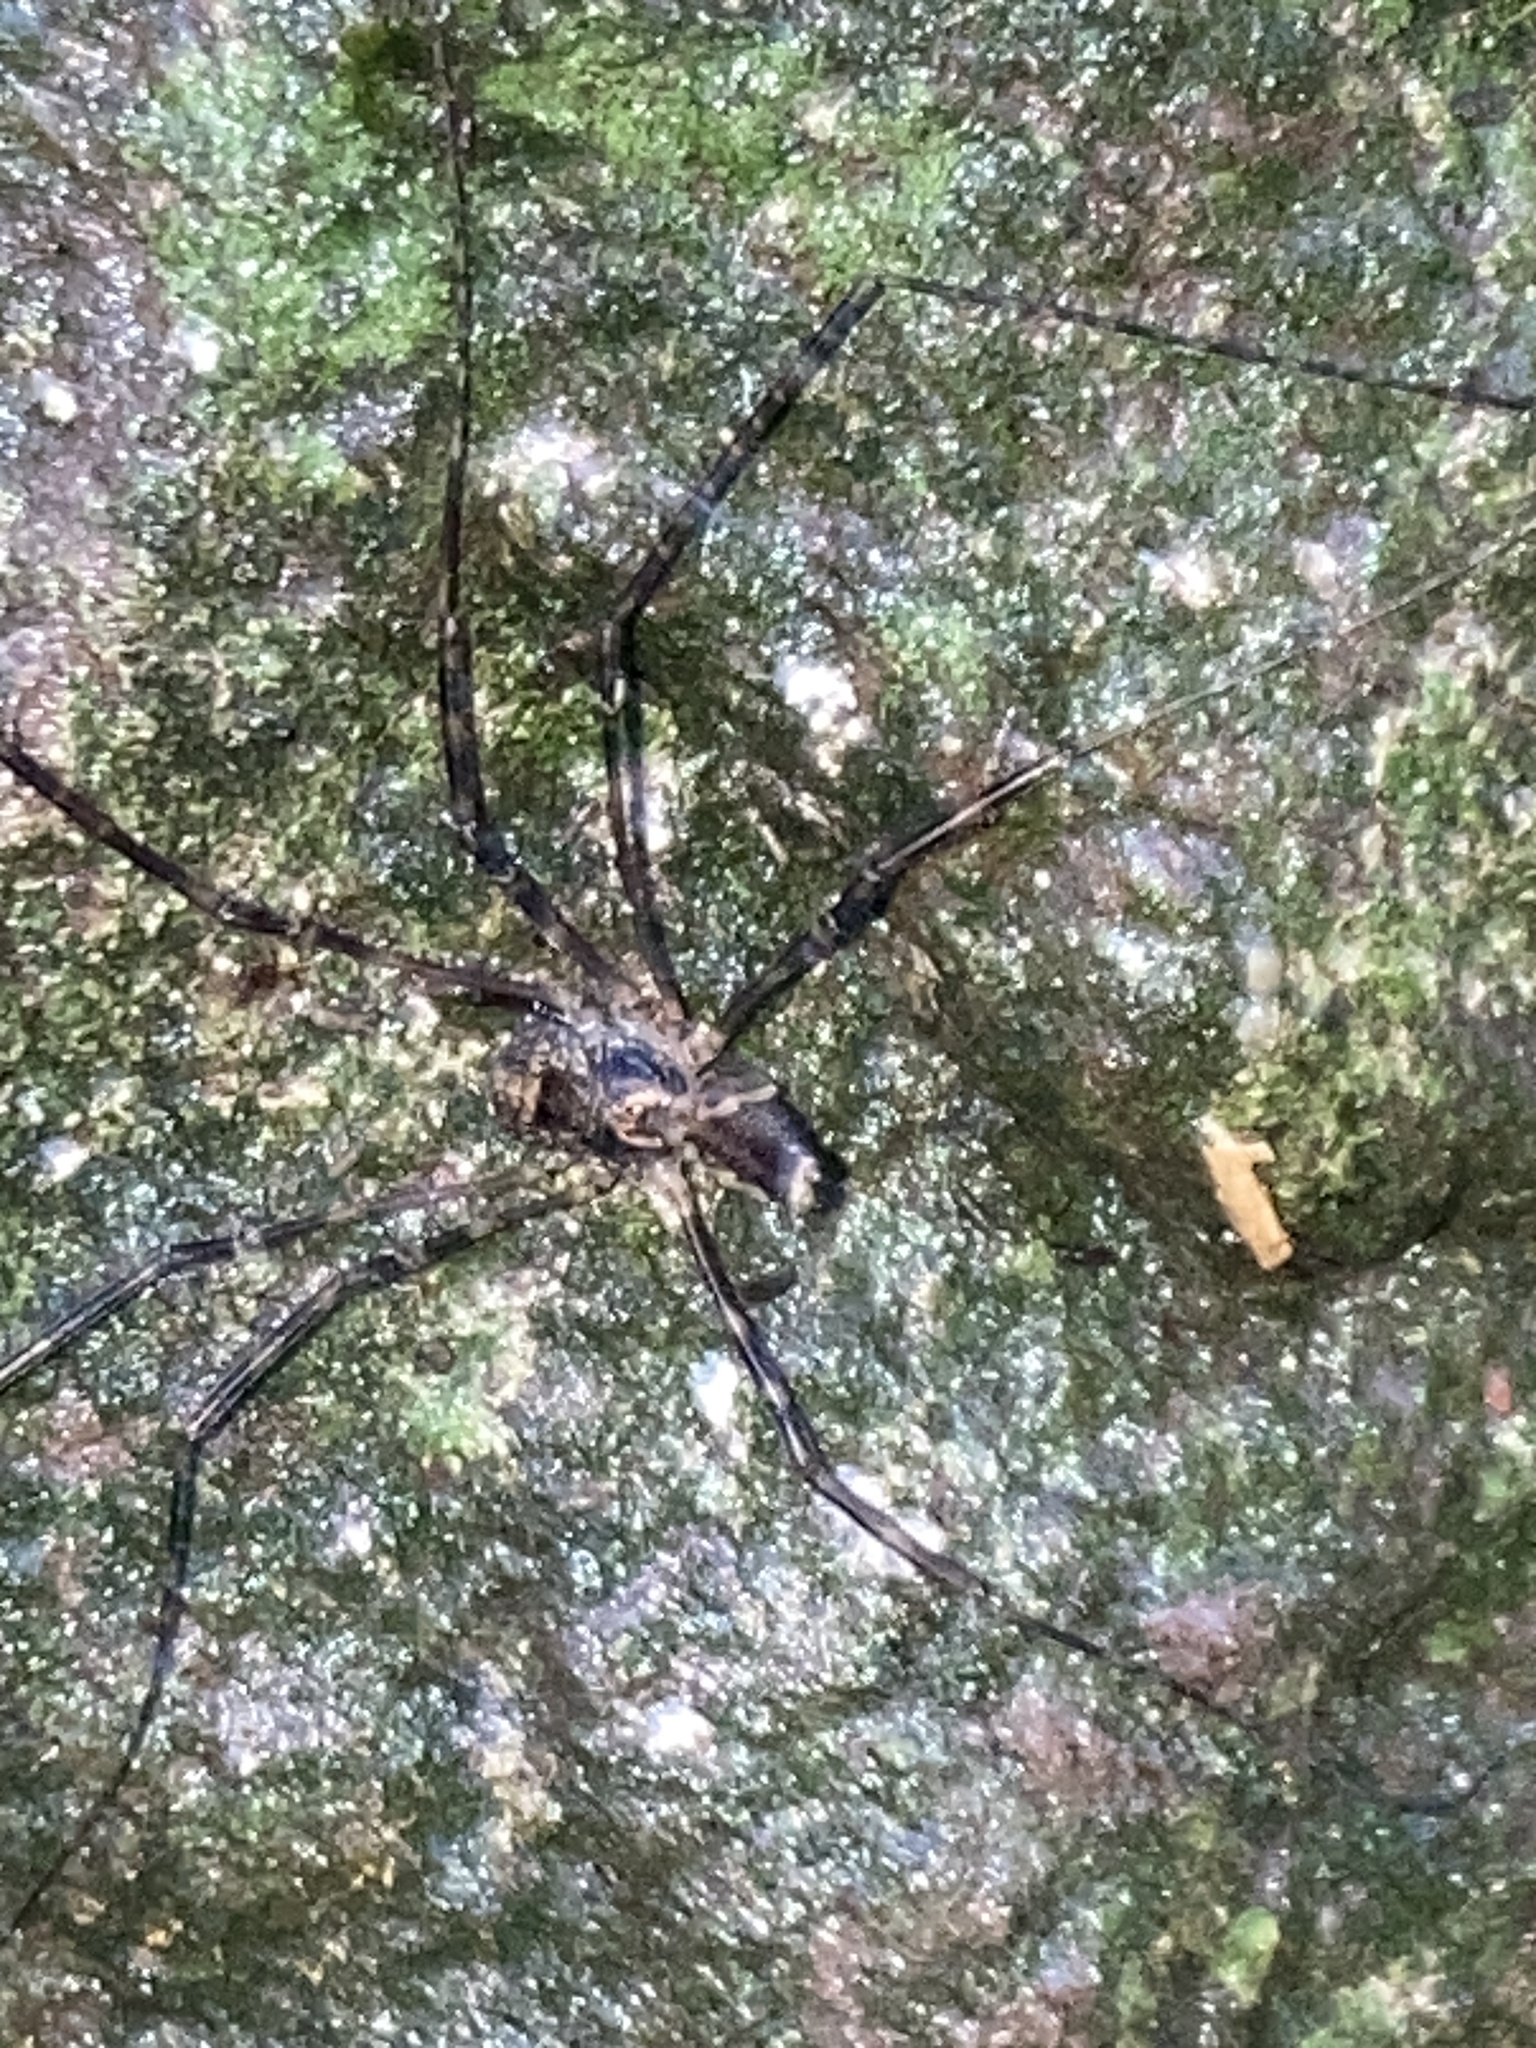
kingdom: Animalia
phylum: Arthropoda
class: Arachnida
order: Opiliones
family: Neopilionidae
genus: Forsteropsalis
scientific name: Forsteropsalis marplesi
